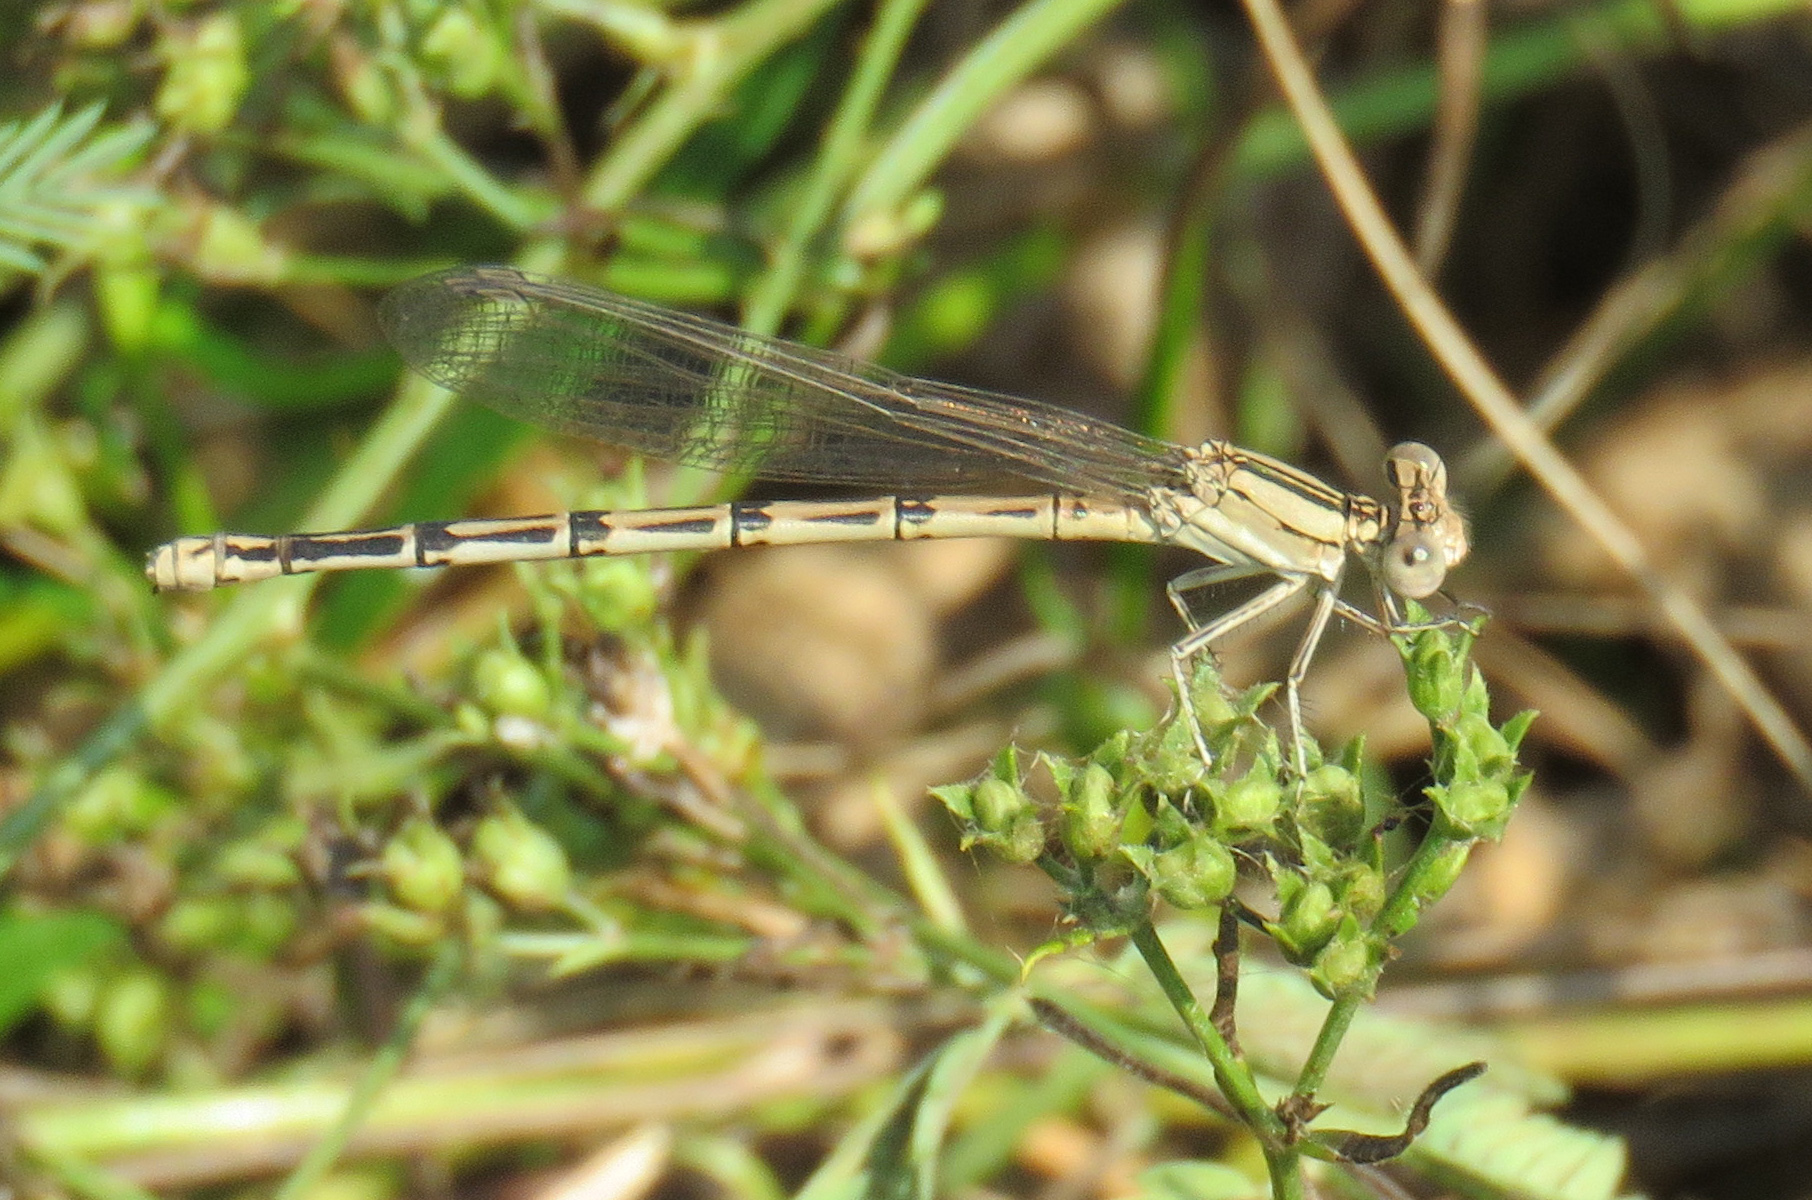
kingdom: Animalia
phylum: Arthropoda
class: Insecta
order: Odonata
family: Coenagrionidae
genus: Argia
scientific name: Argia nahuana
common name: Aztec dancer
